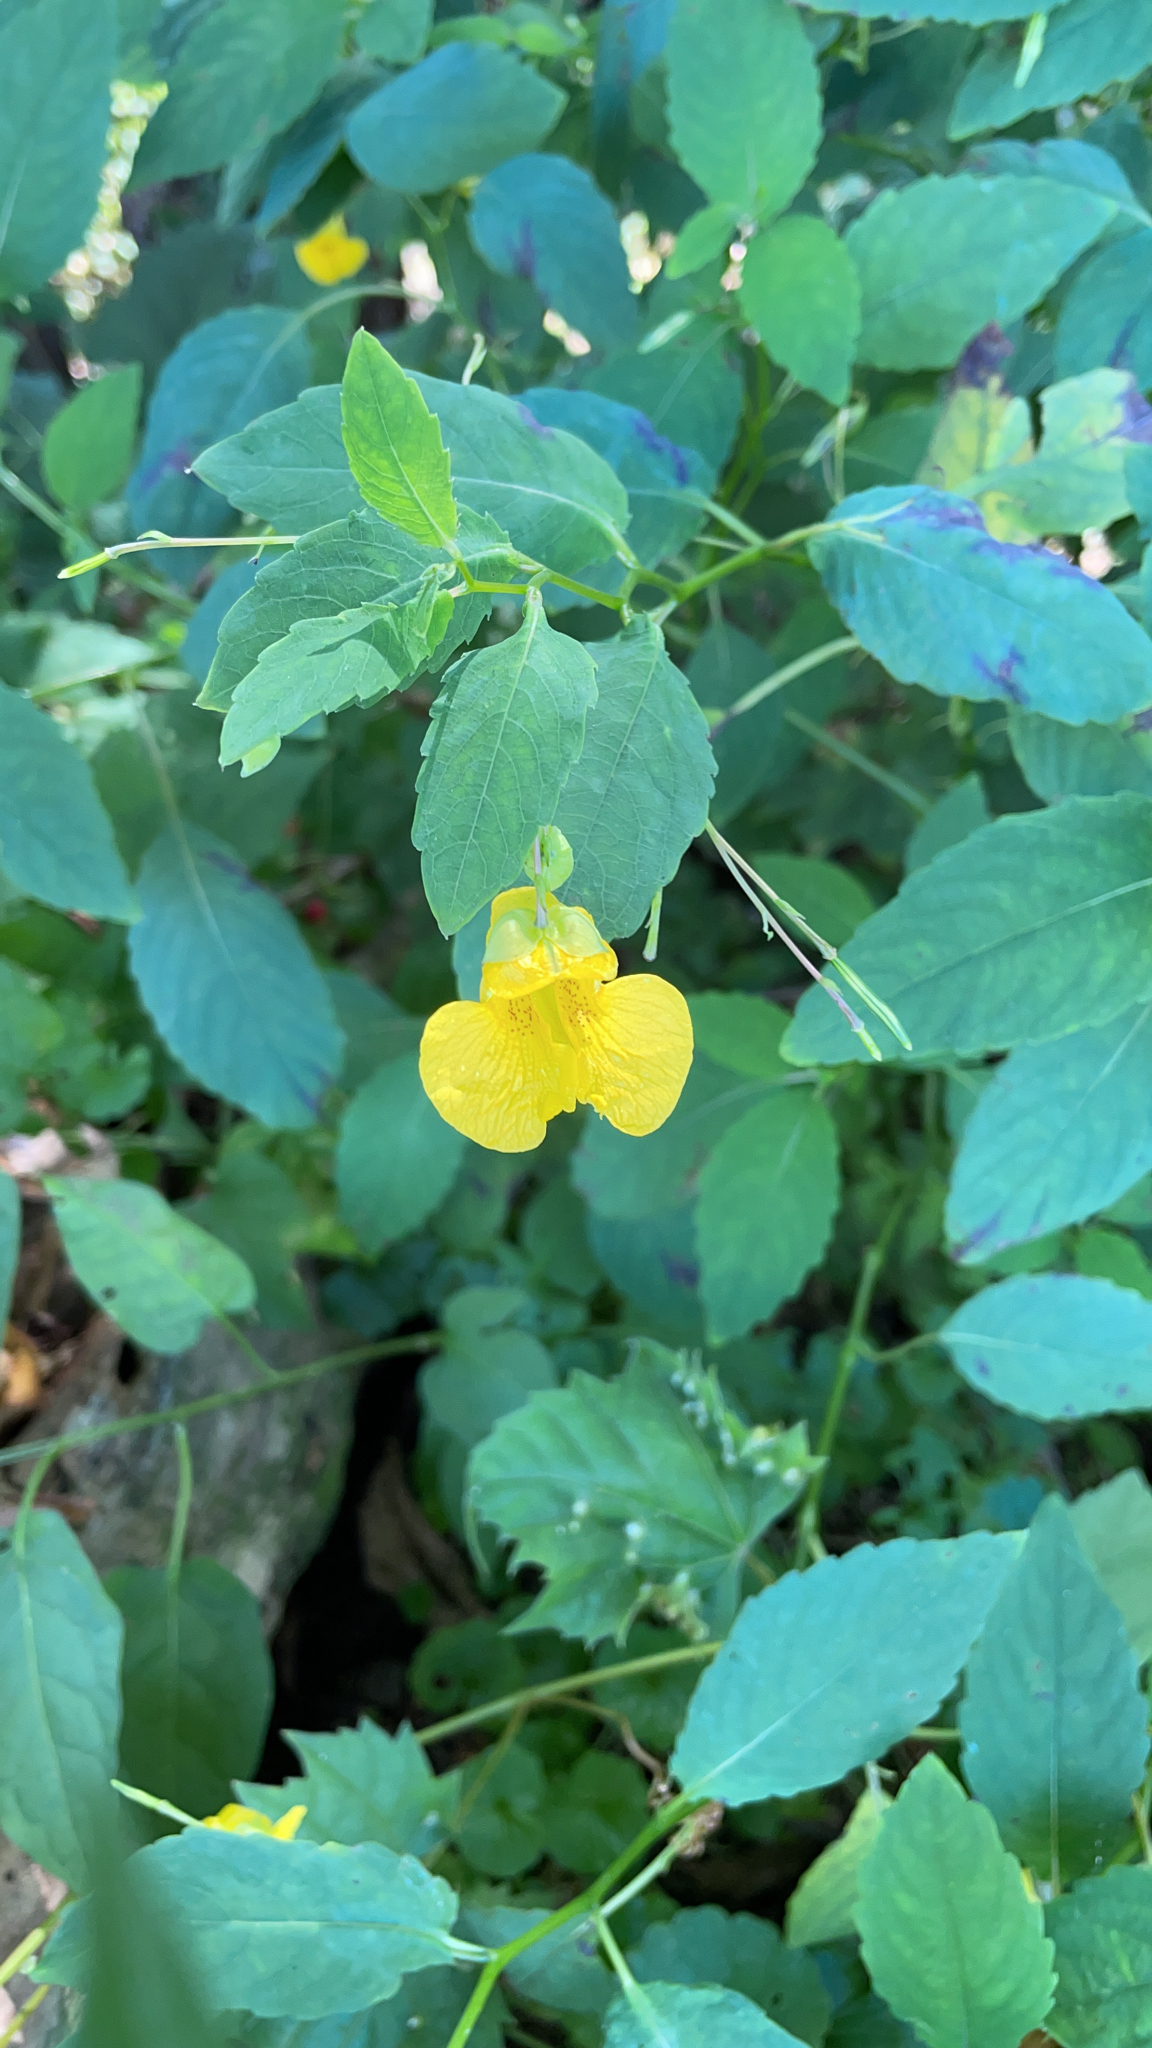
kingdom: Plantae
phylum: Tracheophyta
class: Magnoliopsida
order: Ericales
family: Balsaminaceae
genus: Impatiens
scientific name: Impatiens pallida
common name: Pale snapweed
